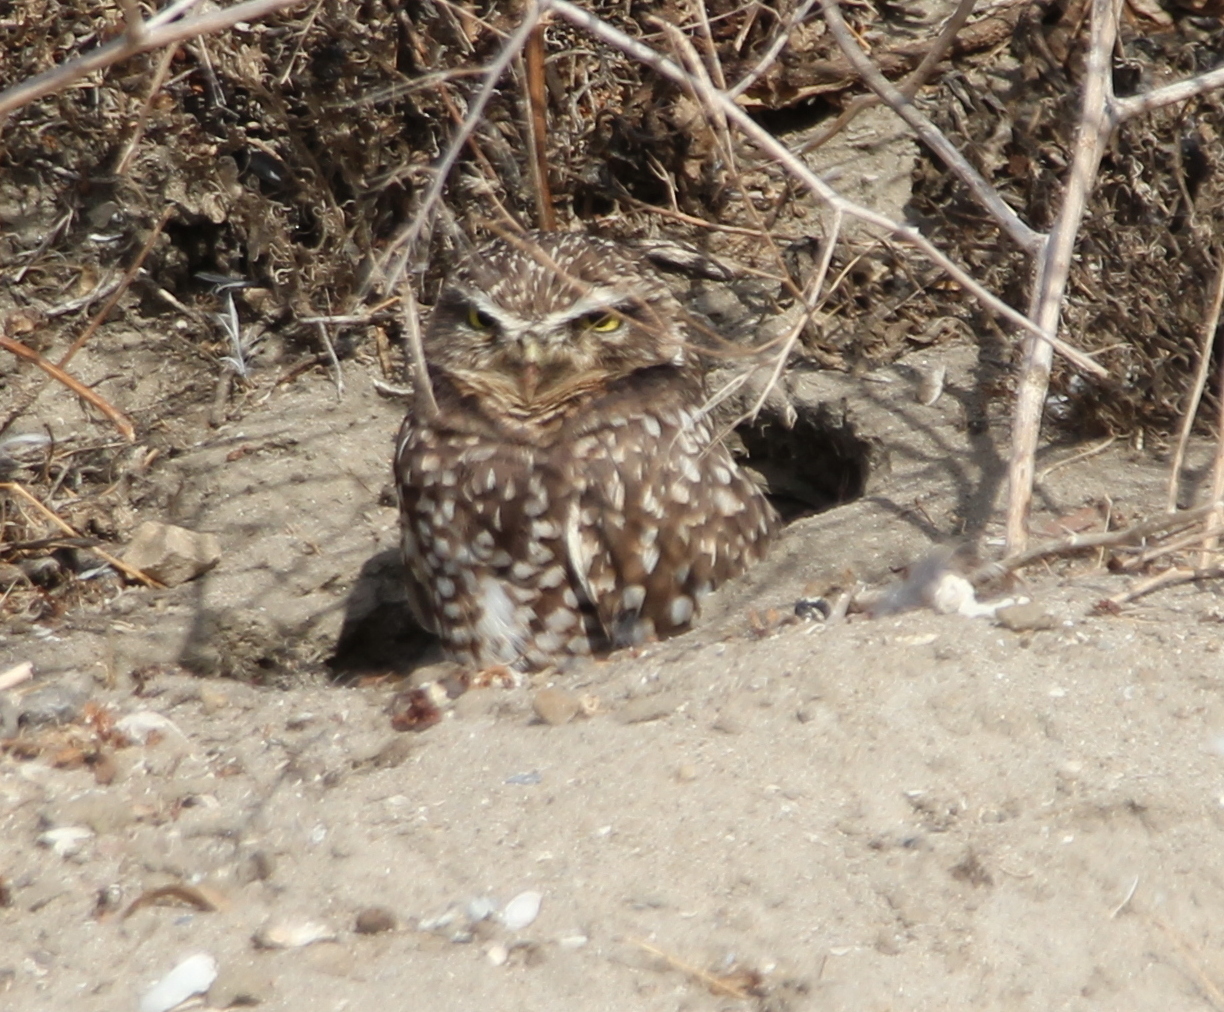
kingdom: Animalia
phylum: Chordata
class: Aves
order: Strigiformes
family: Strigidae
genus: Athene
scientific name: Athene cunicularia
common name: Burrowing owl
